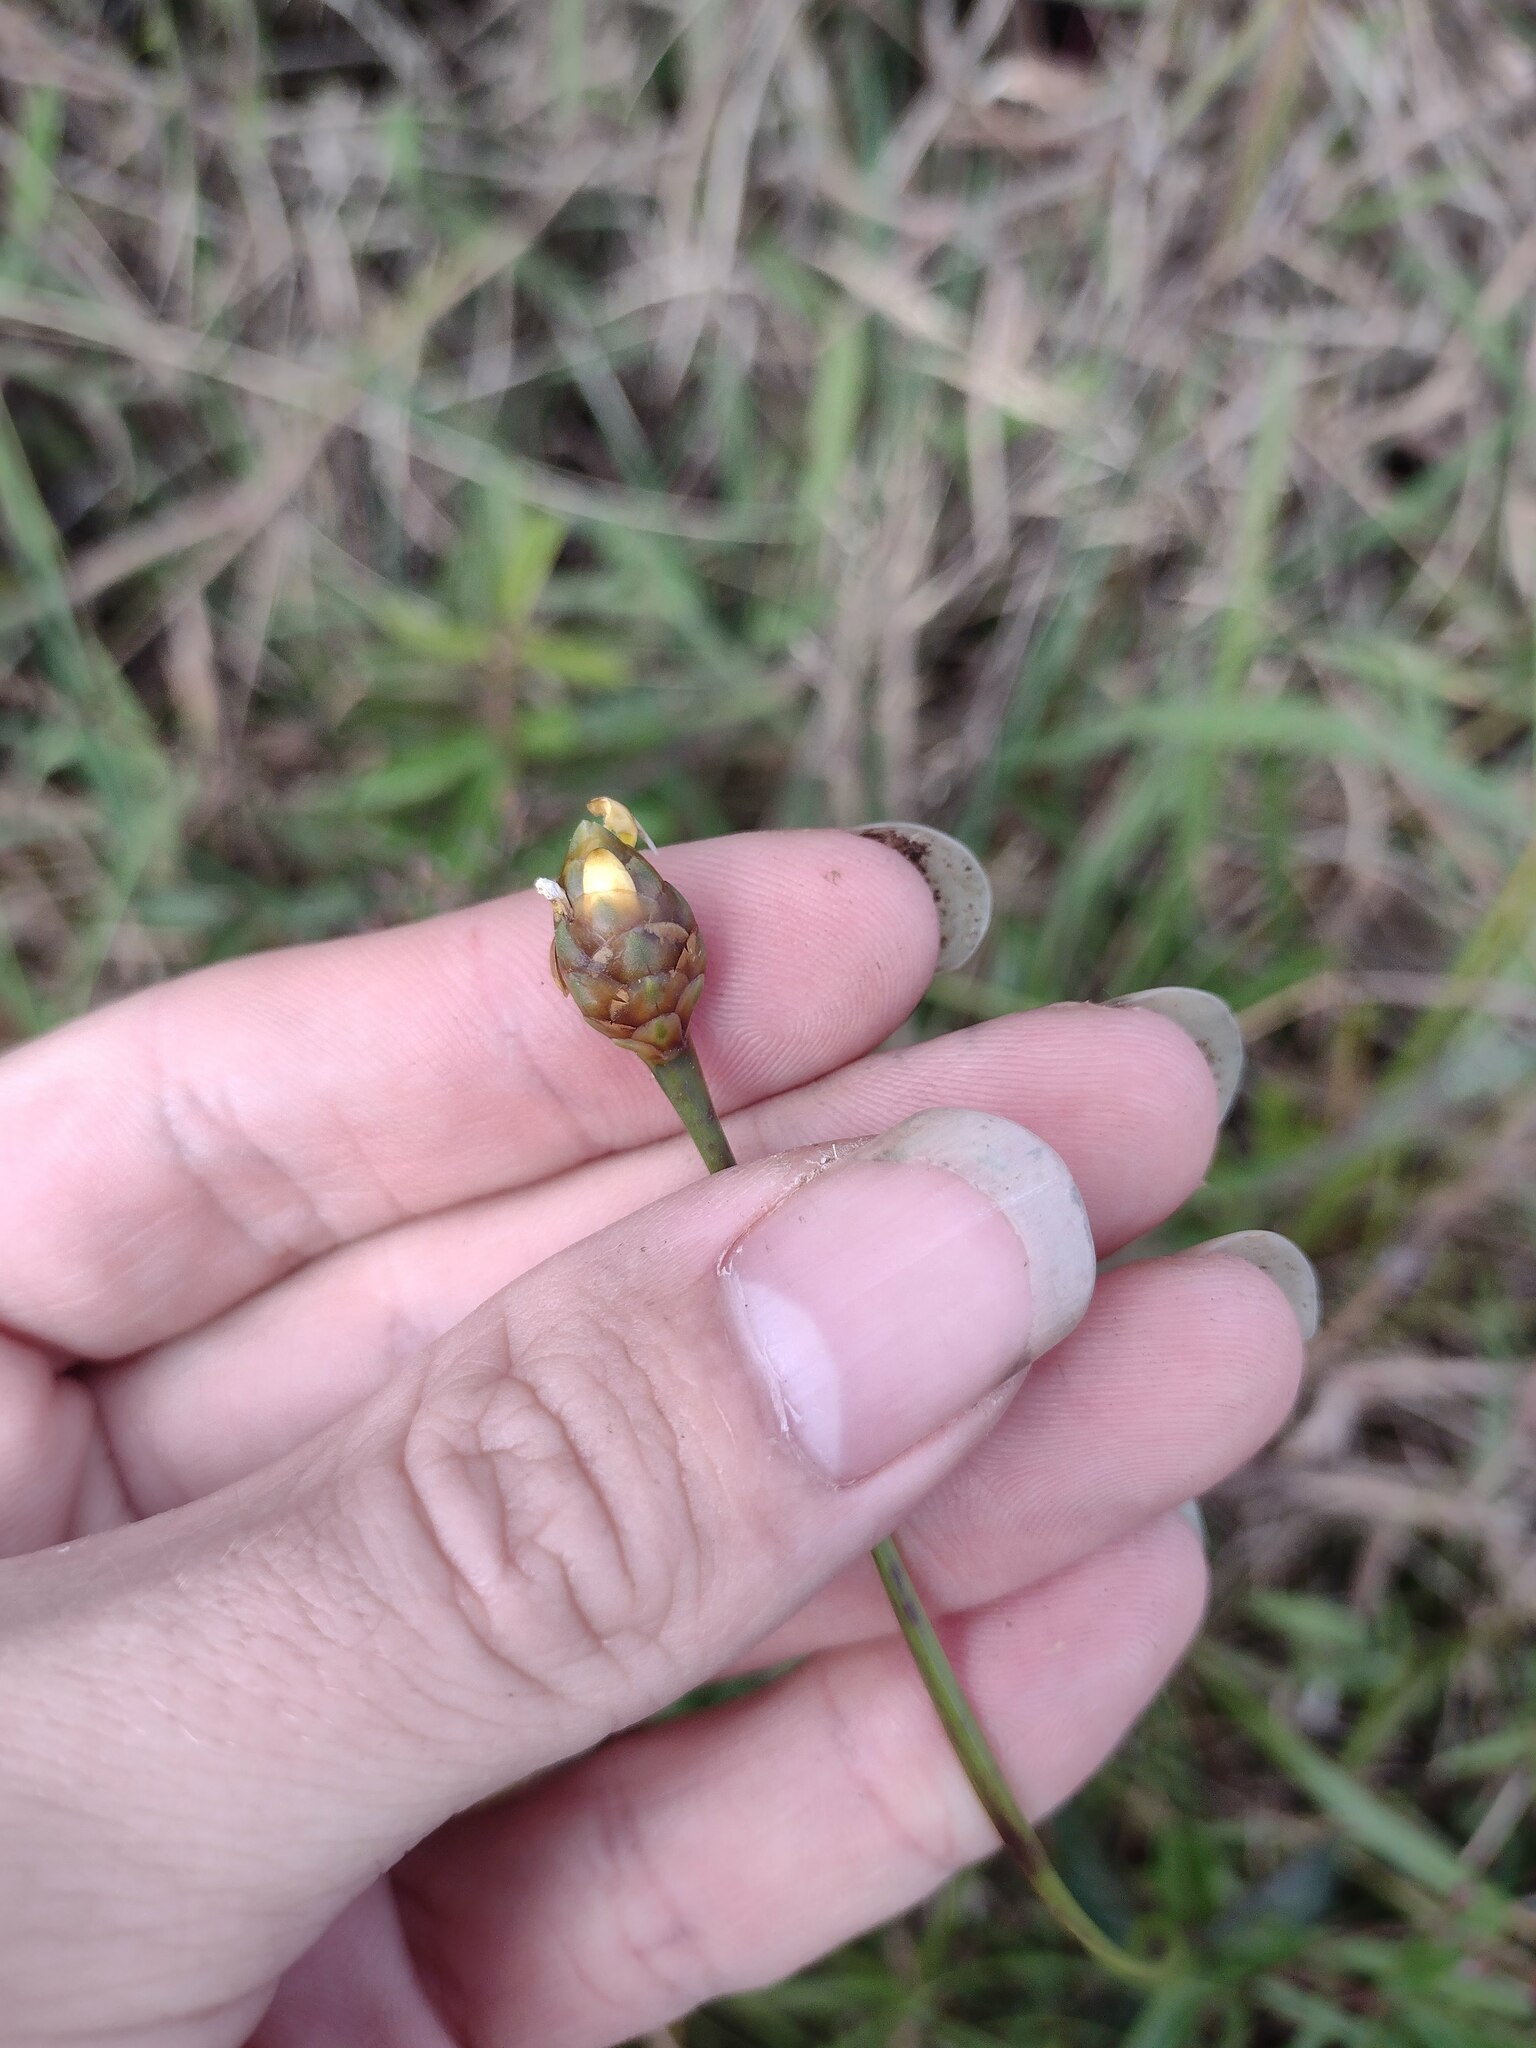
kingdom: Plantae
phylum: Tracheophyta
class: Liliopsida
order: Poales
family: Xyridaceae
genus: Xyris
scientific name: Xyris platylepis
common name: Tall yelloweyed grass
